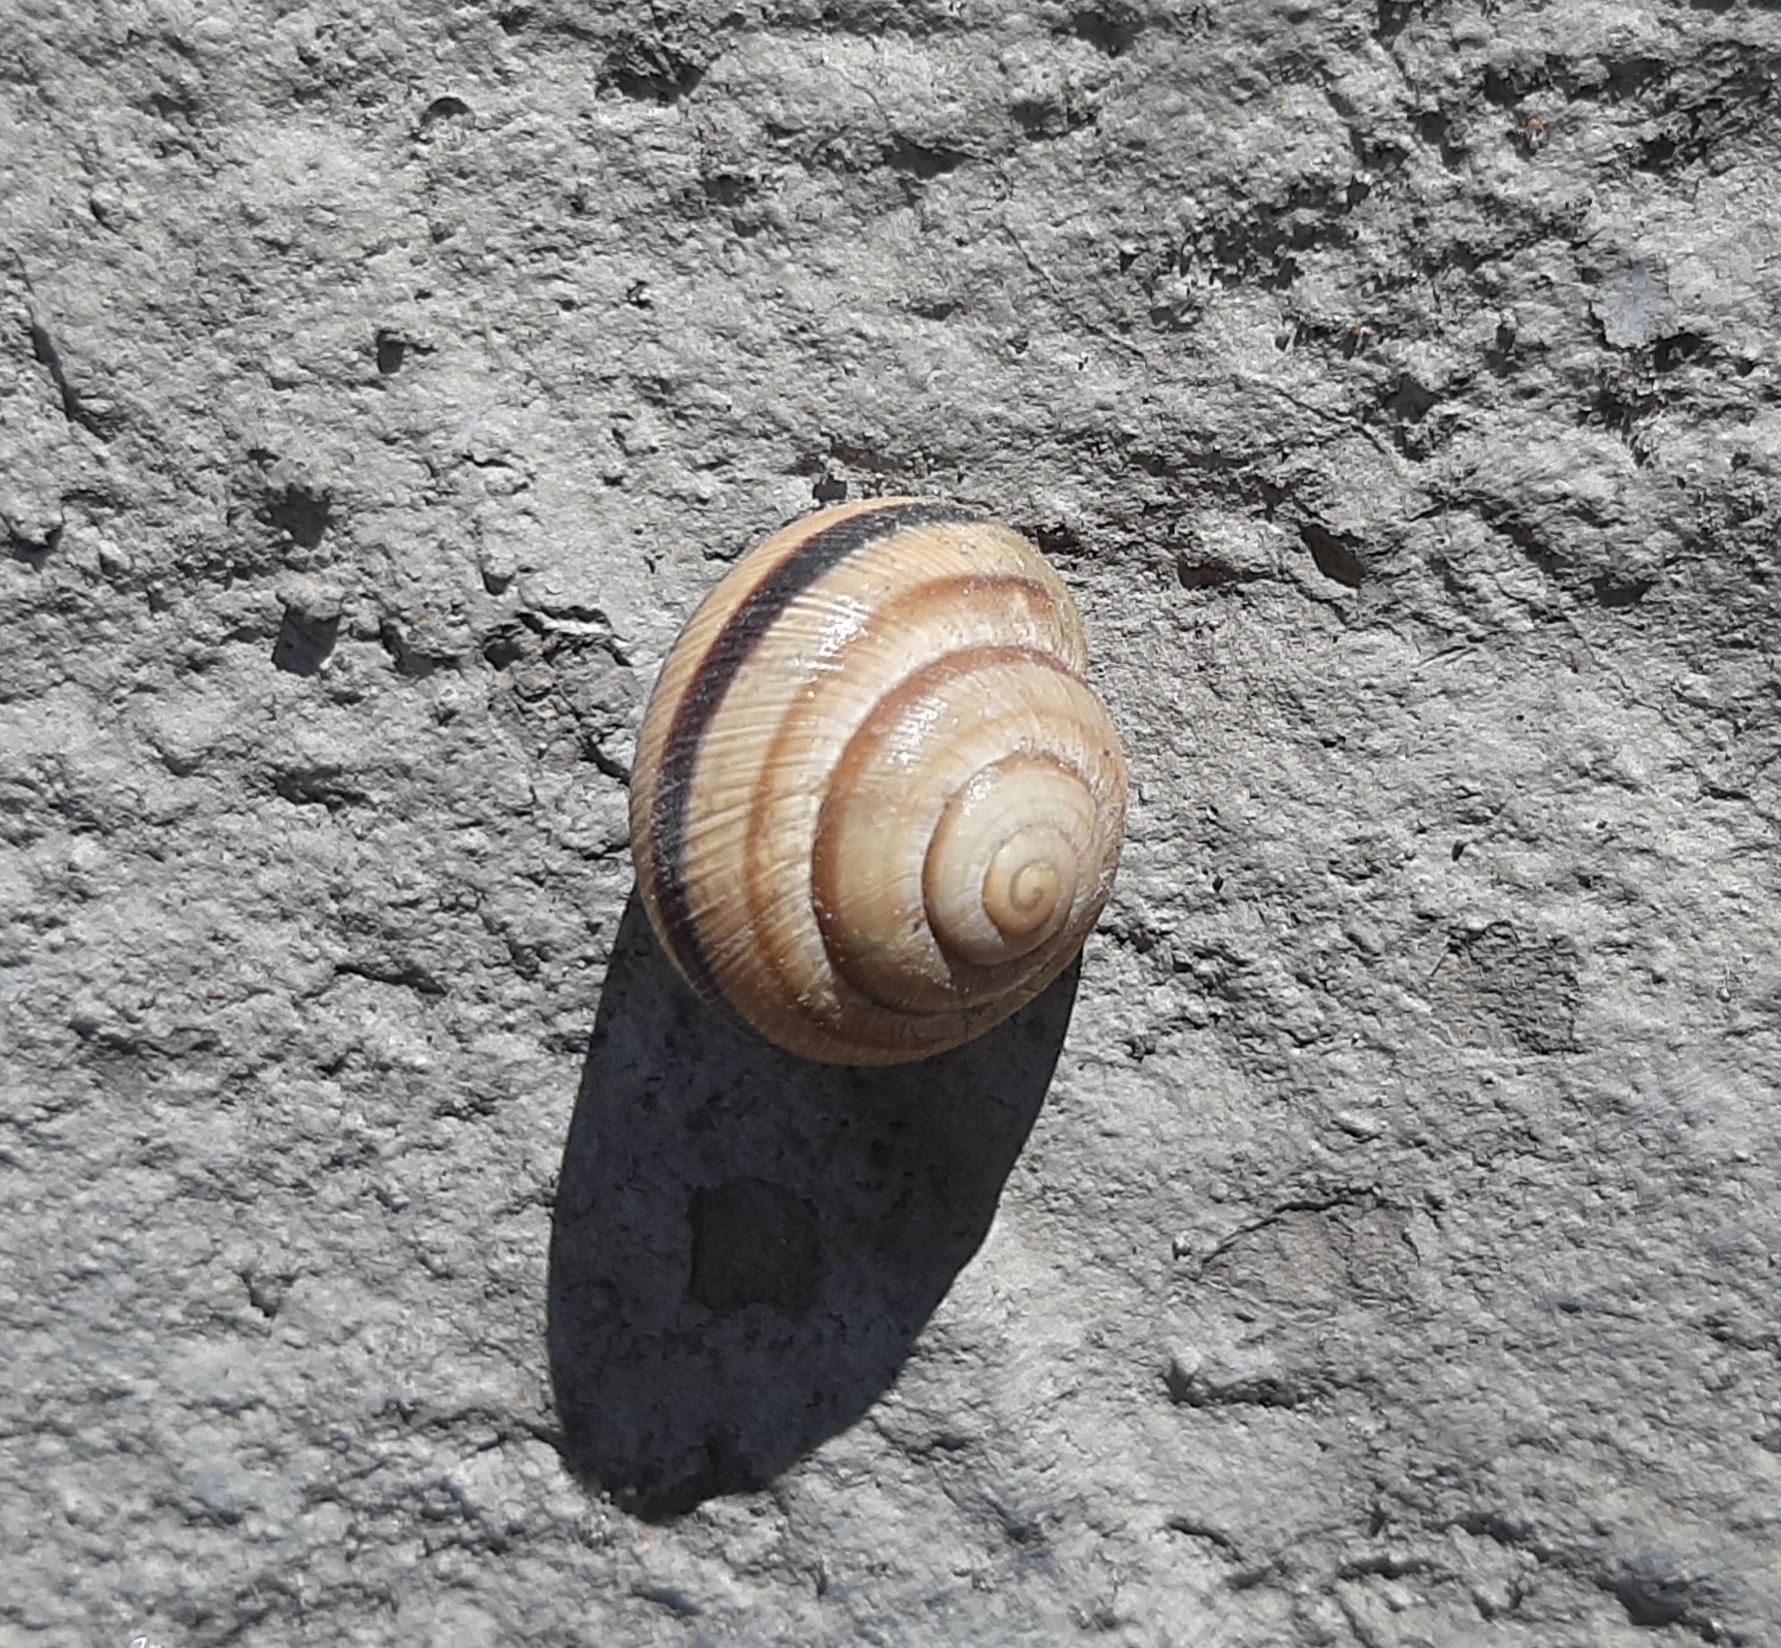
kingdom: Animalia
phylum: Mollusca
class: Gastropoda
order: Stylommatophora
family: Helicidae
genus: Caucasotachea
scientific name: Caucasotachea vindobonensis
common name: European helicid land snail
